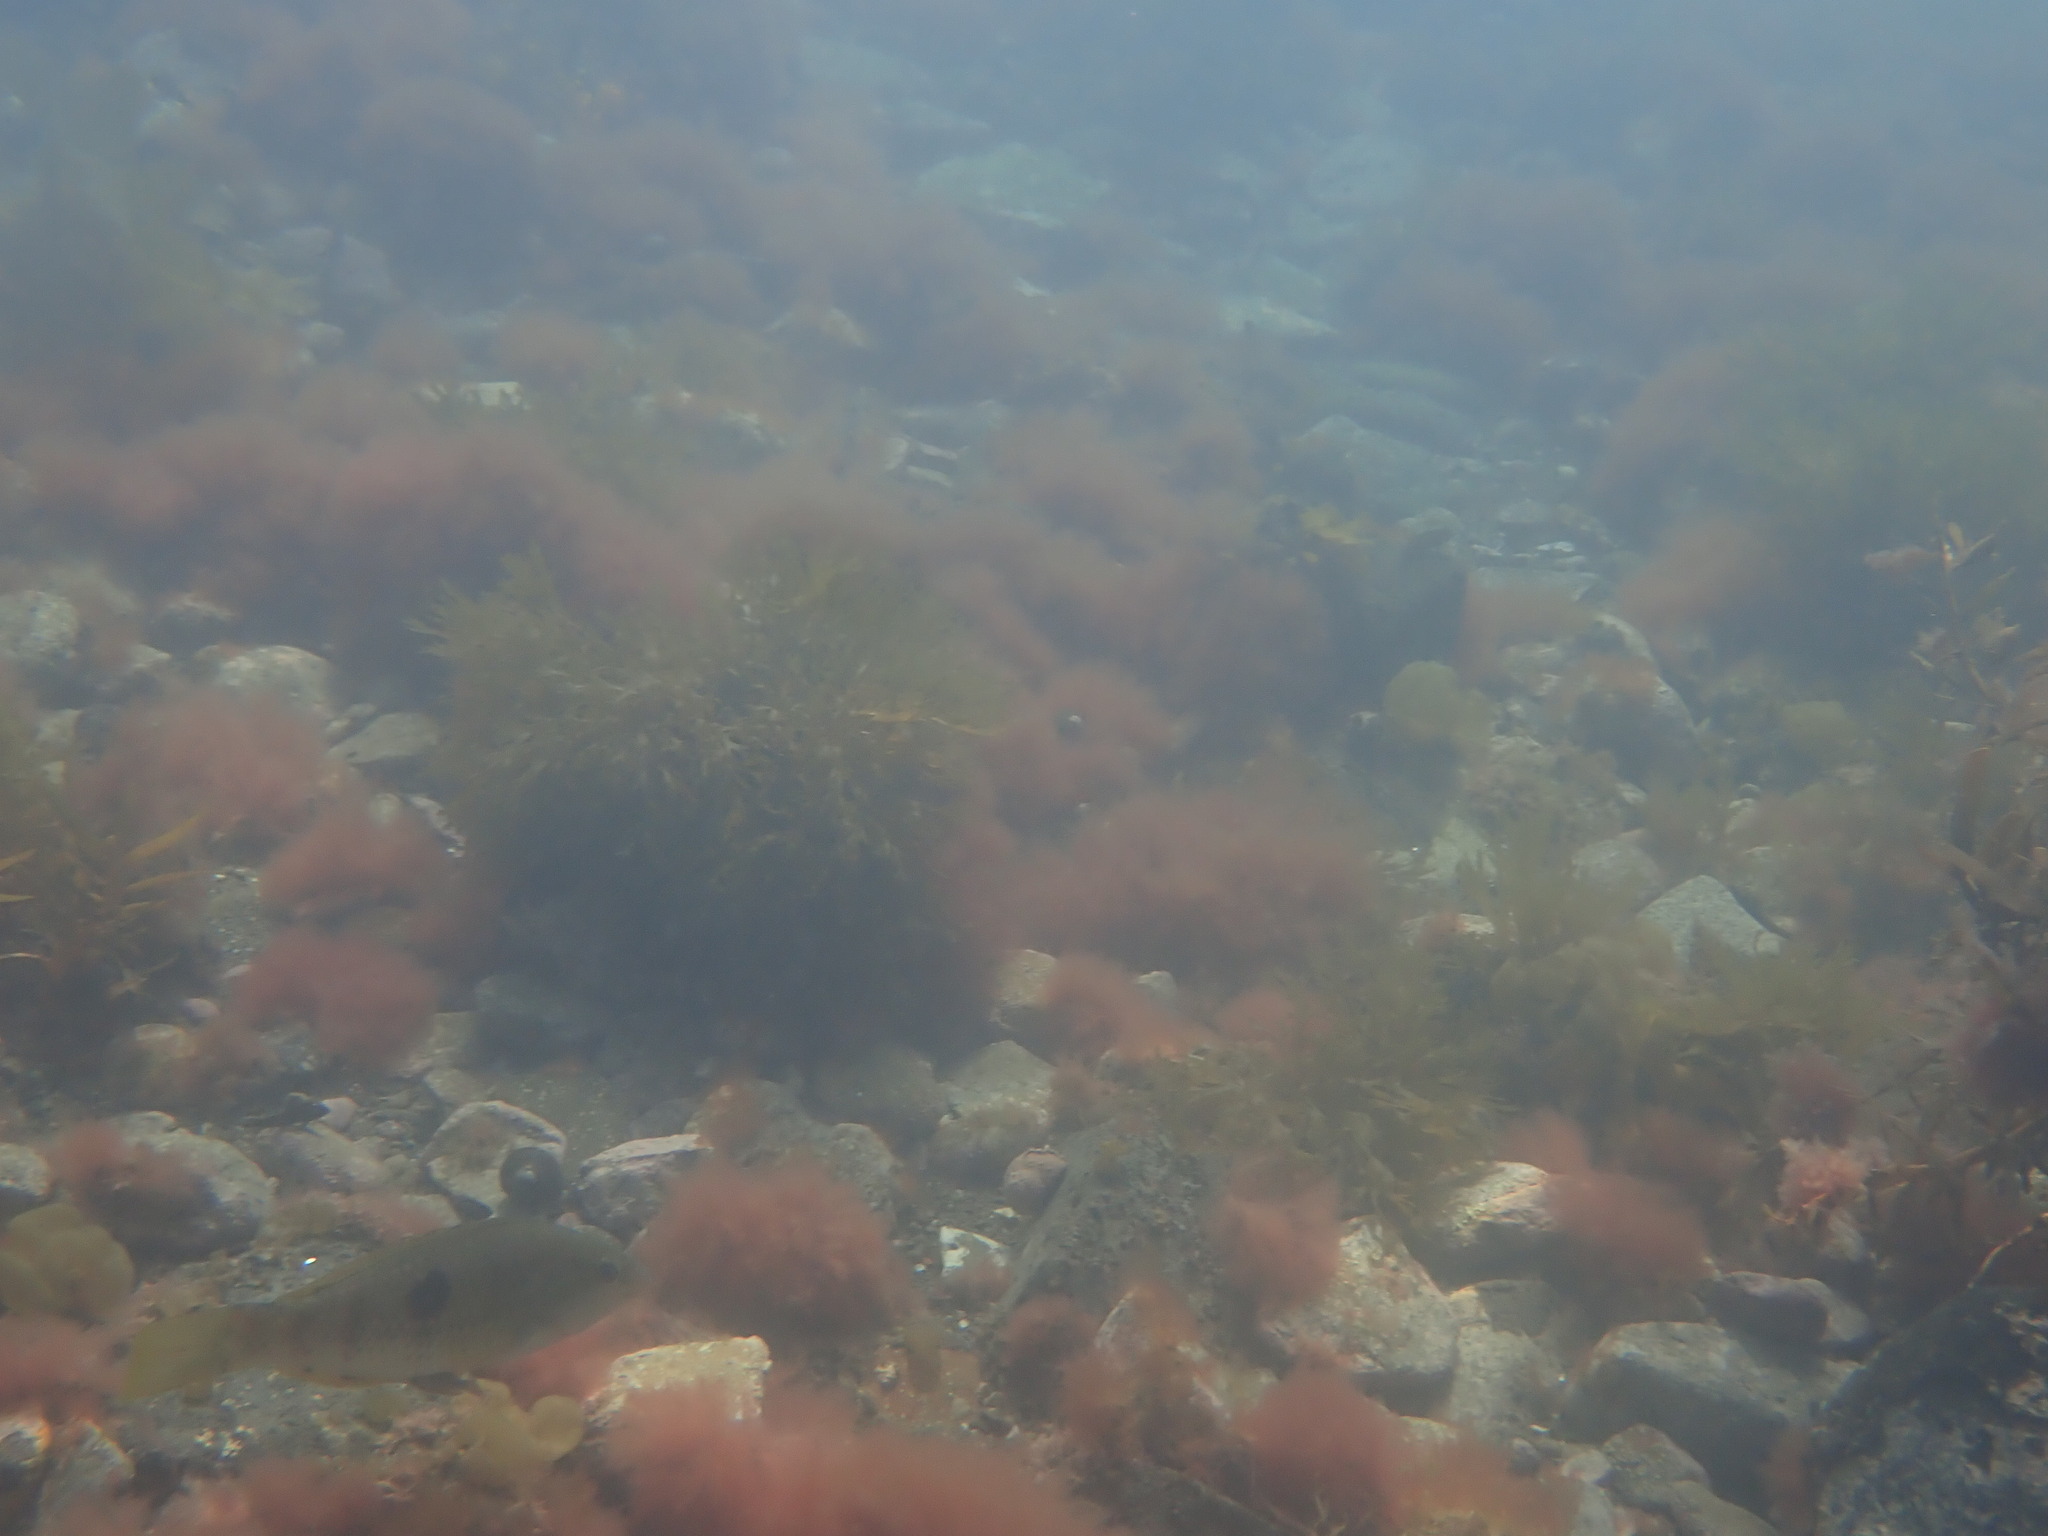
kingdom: Animalia
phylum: Chordata
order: Perciformes
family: Labridae
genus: Notolabrus
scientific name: Notolabrus celidotus
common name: Spotty
